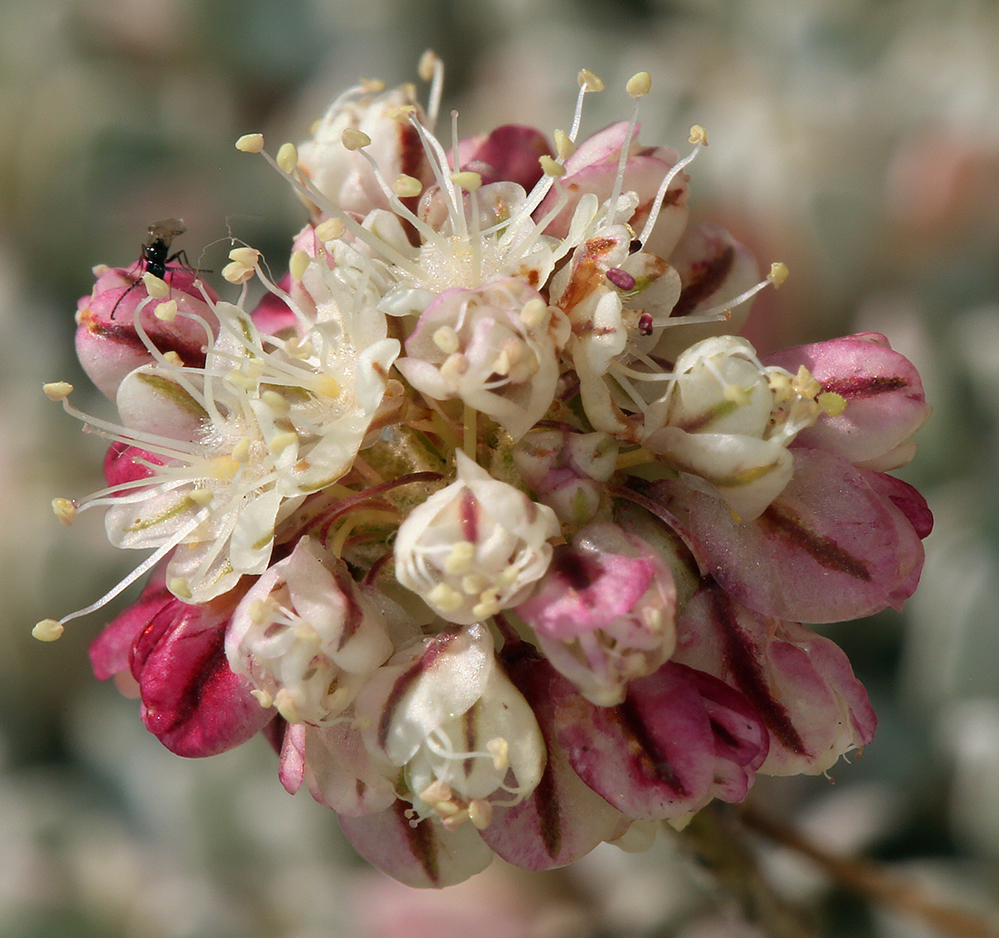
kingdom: Plantae
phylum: Tracheophyta
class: Magnoliopsida
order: Caryophyllales
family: Polygonaceae
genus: Eriogonum
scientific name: Eriogonum ovalifolium
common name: Cushion buckwheat
